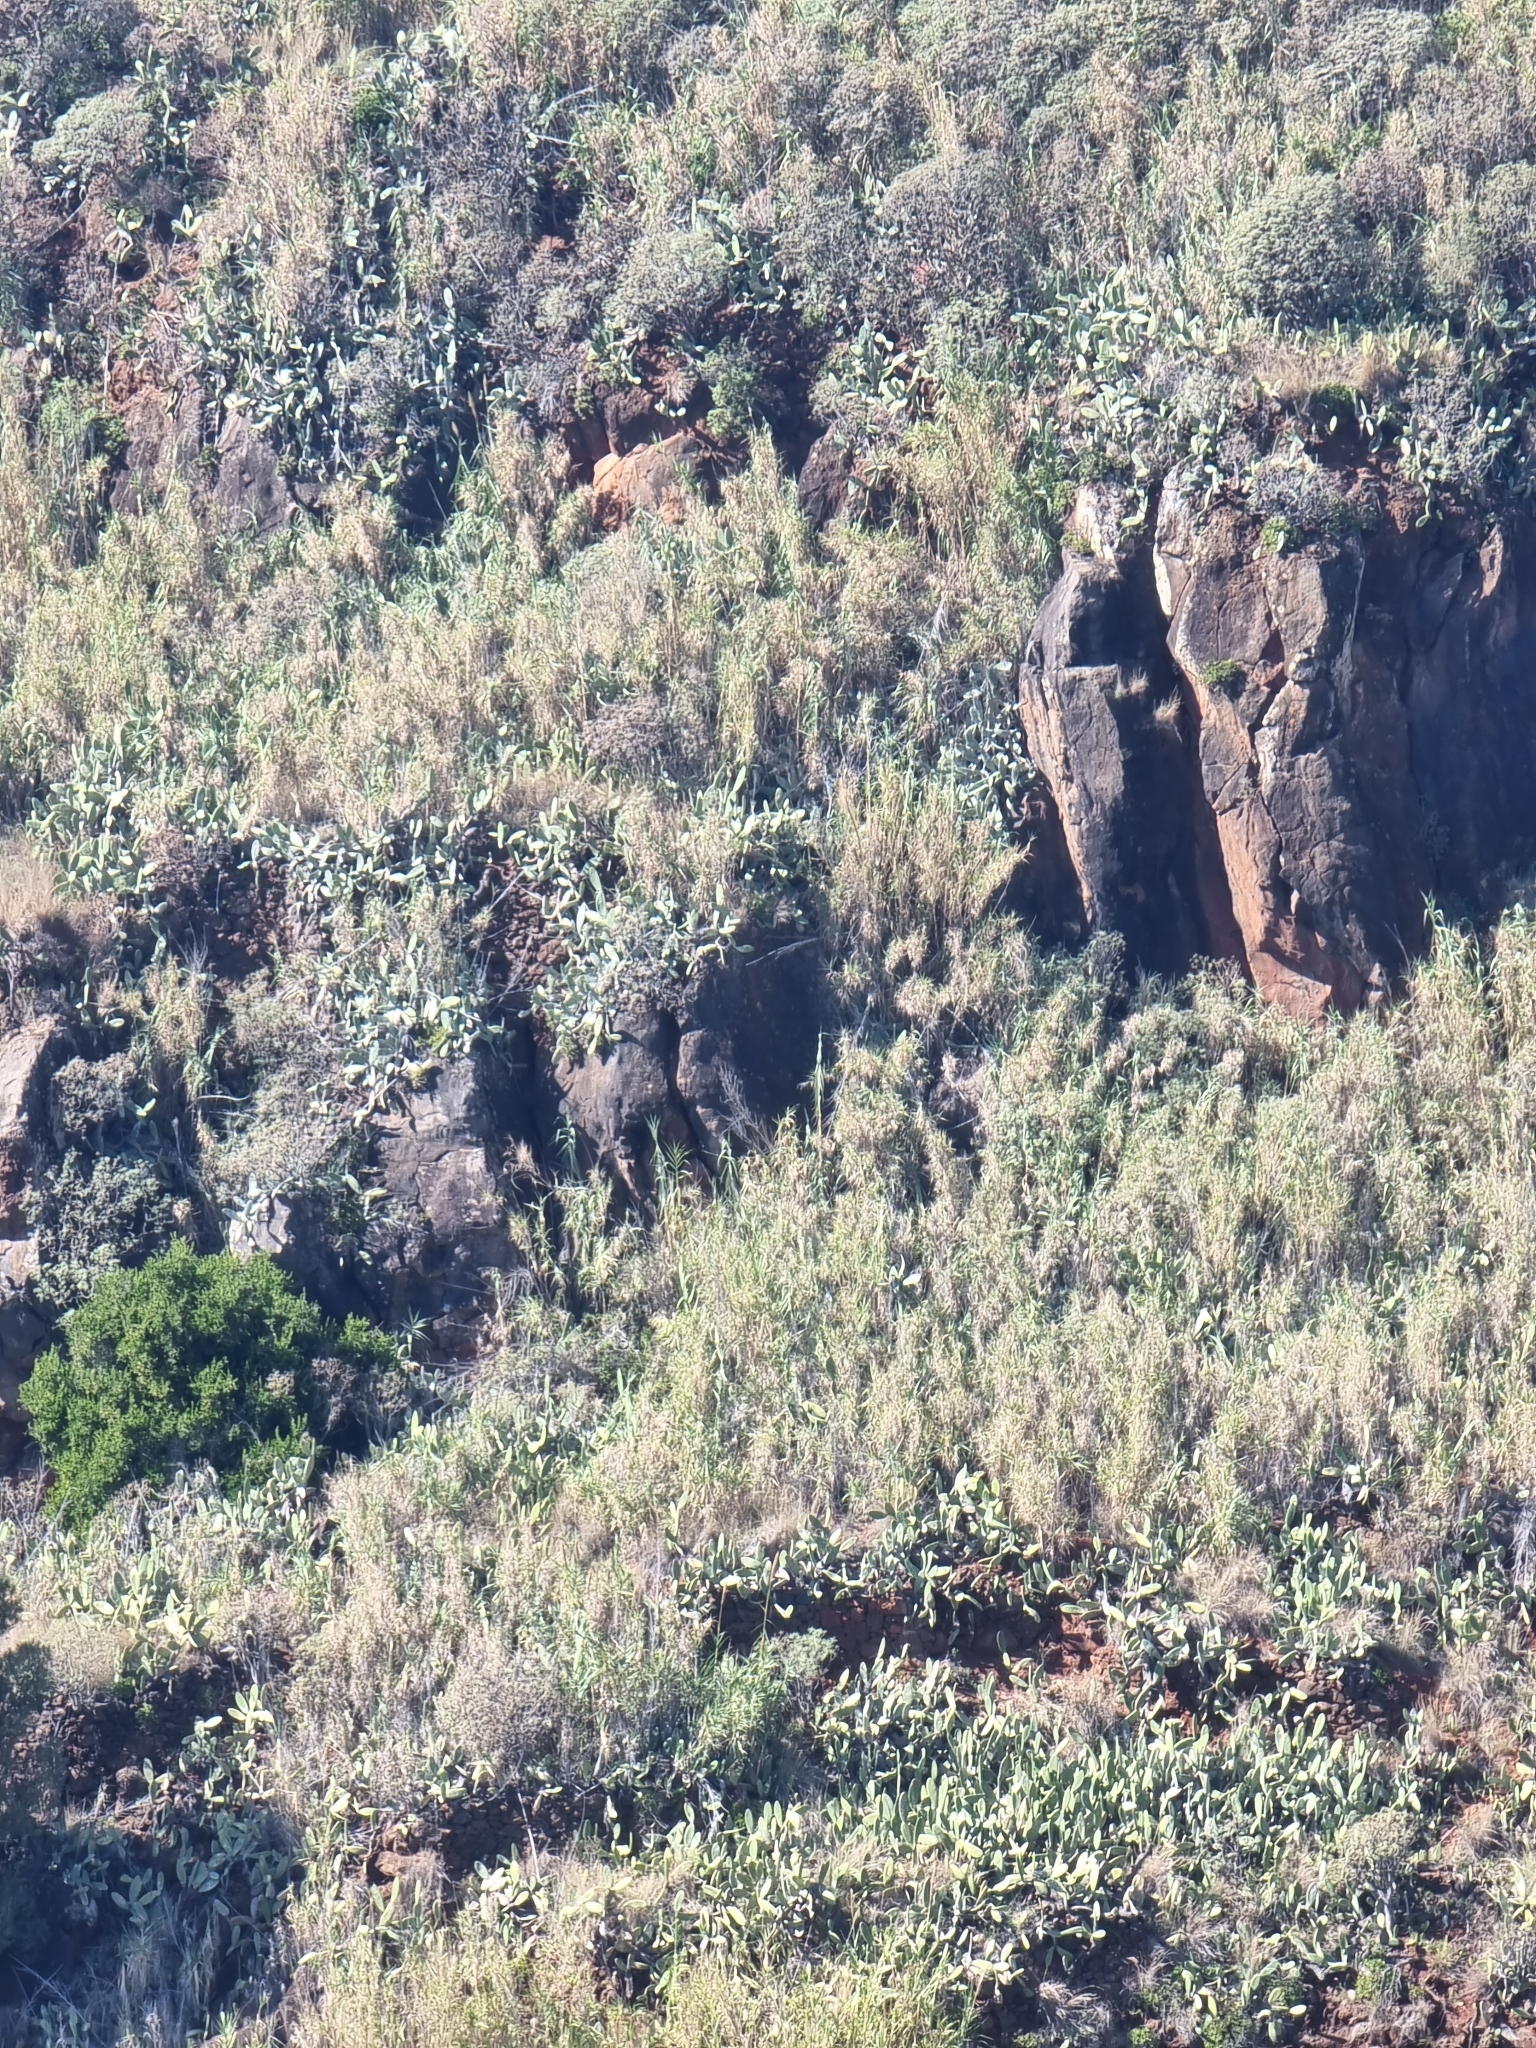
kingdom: Plantae
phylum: Tracheophyta
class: Magnoliopsida
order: Caryophyllales
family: Cactaceae
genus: Opuntia
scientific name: Opuntia ficus-indica
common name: Barbary fig
